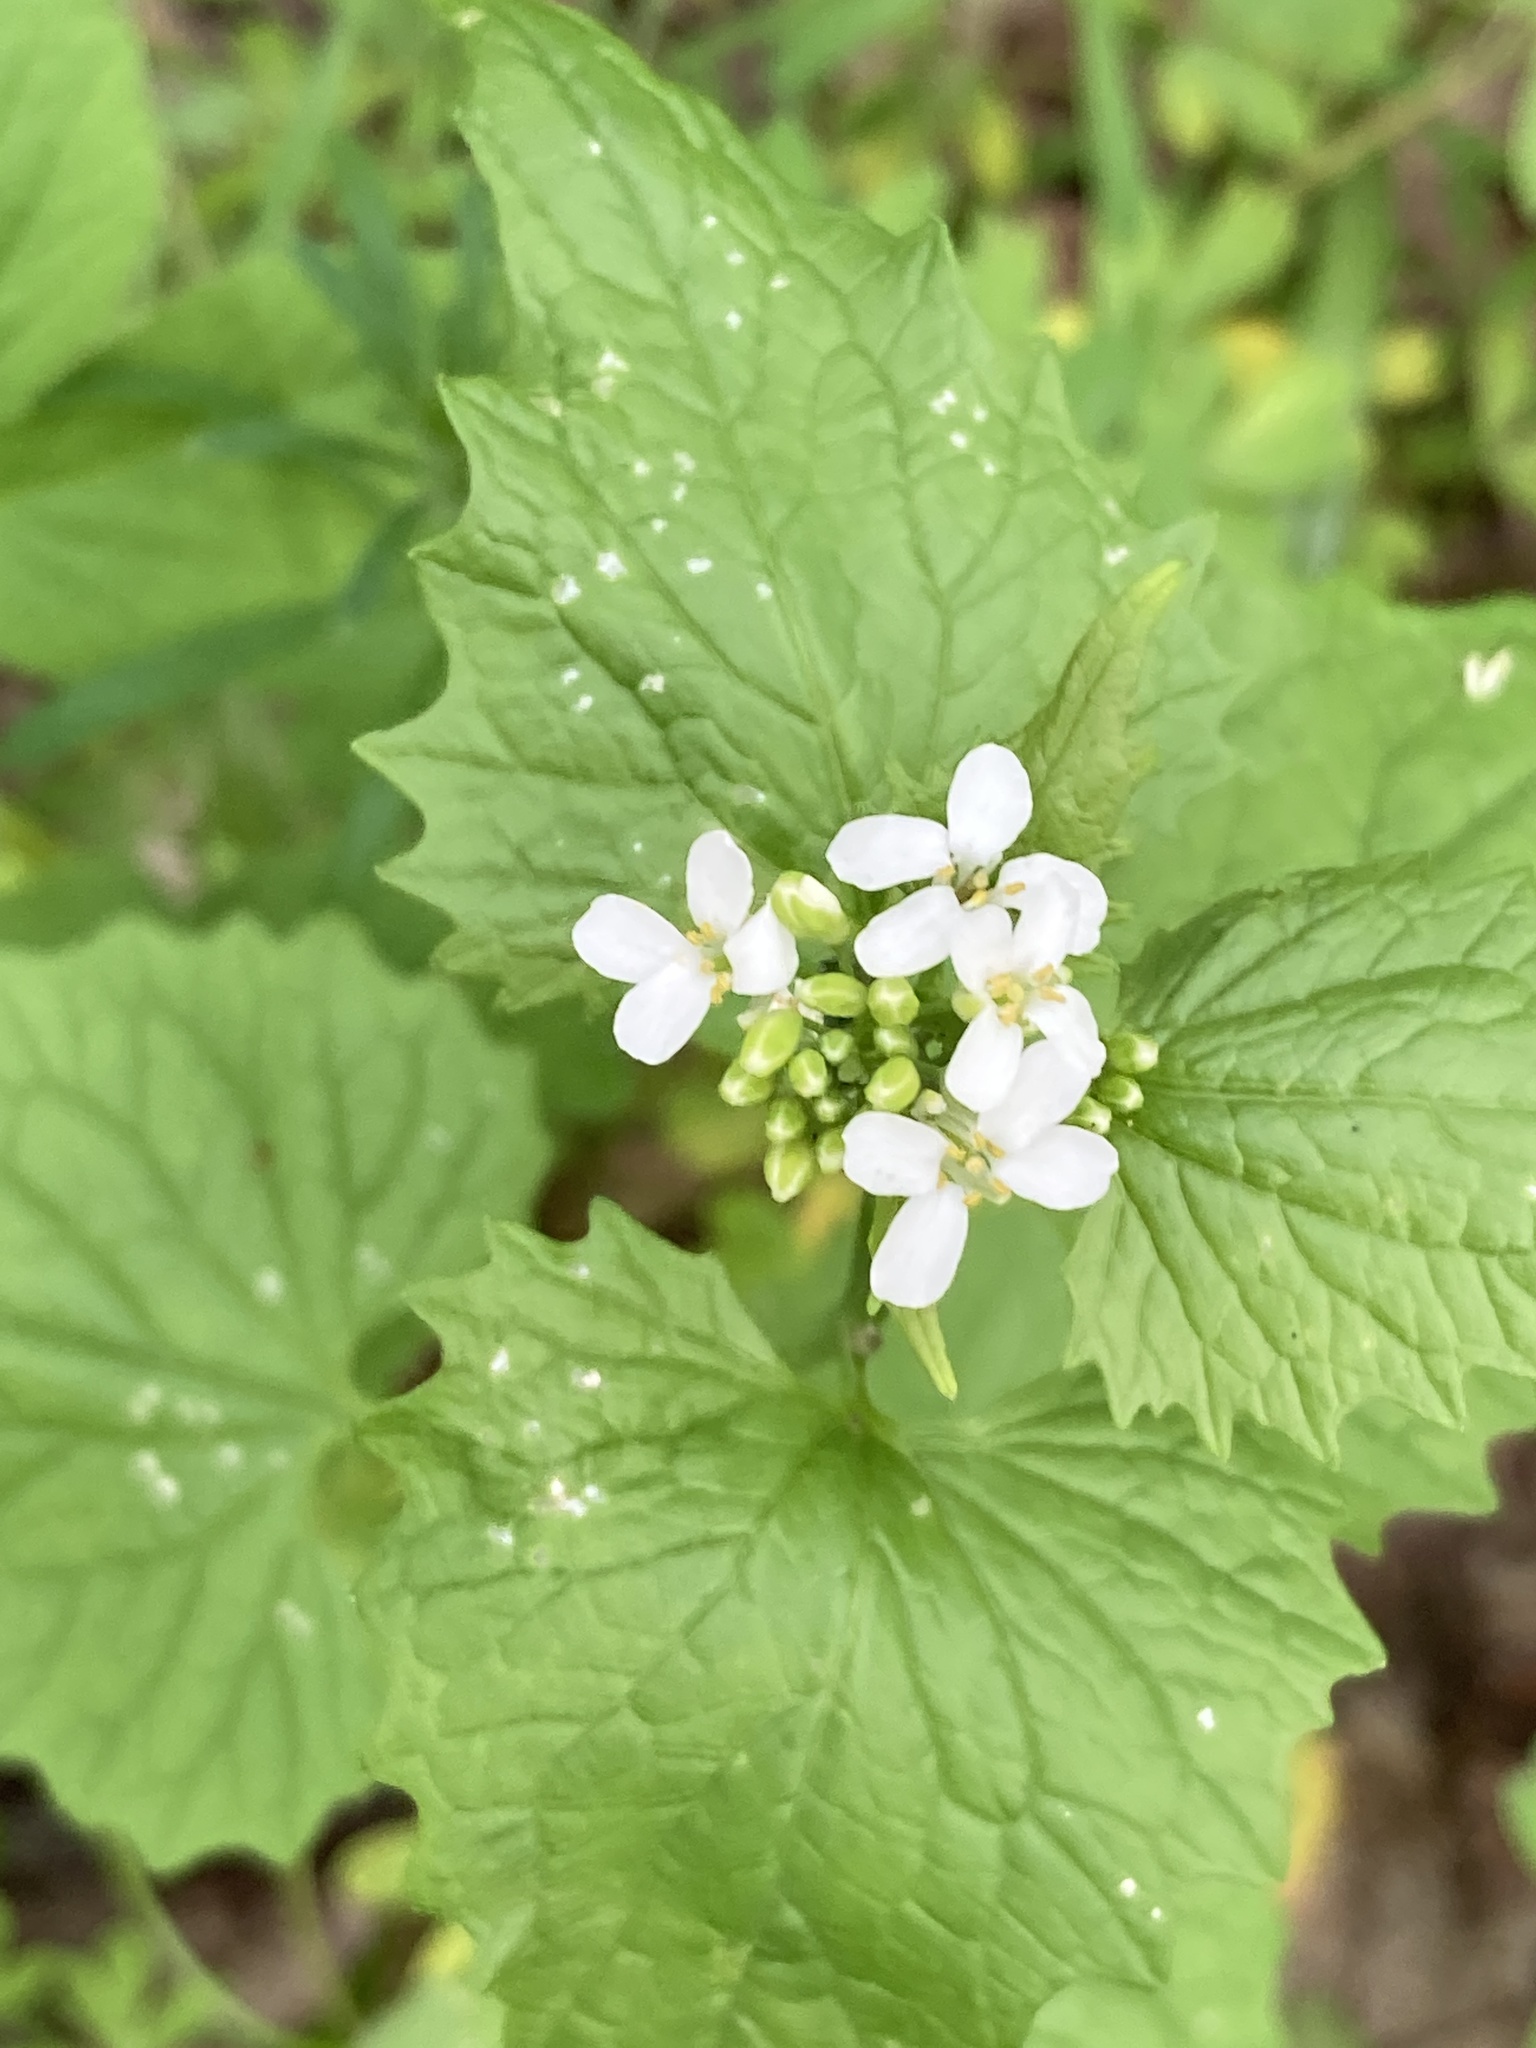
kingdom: Plantae
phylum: Tracheophyta
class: Magnoliopsida
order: Brassicales
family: Brassicaceae
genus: Alliaria
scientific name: Alliaria petiolata
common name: Garlic mustard
